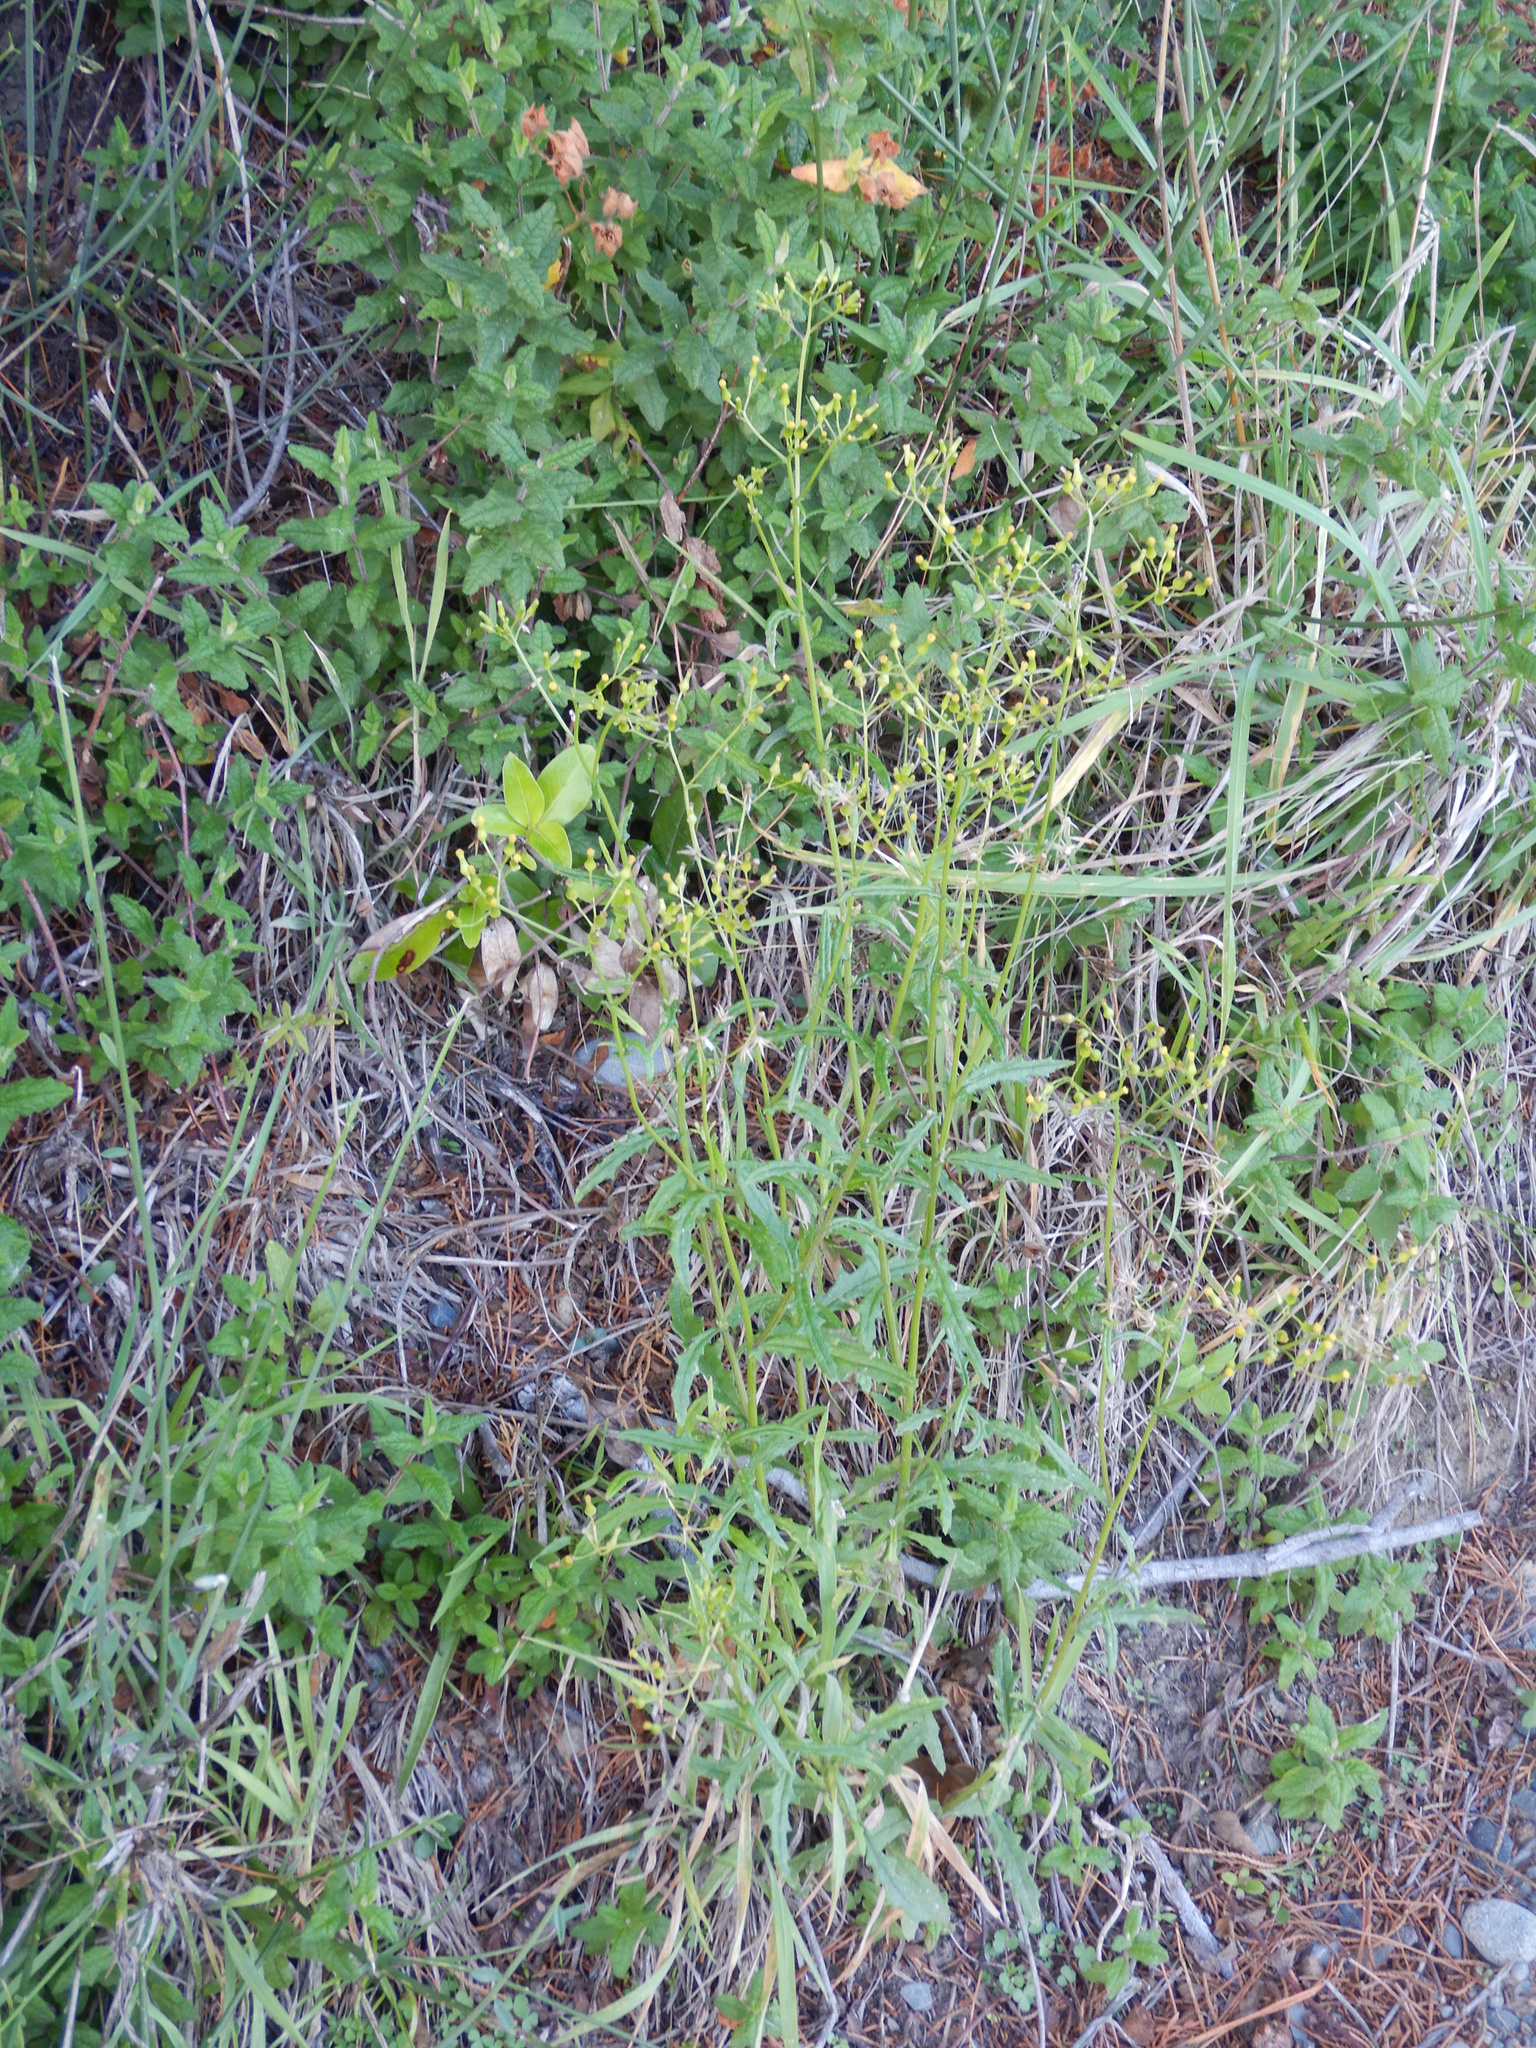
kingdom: Plantae
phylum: Tracheophyta
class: Magnoliopsida
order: Asterales
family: Asteraceae
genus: Senecio
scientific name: Senecio hispidulus
